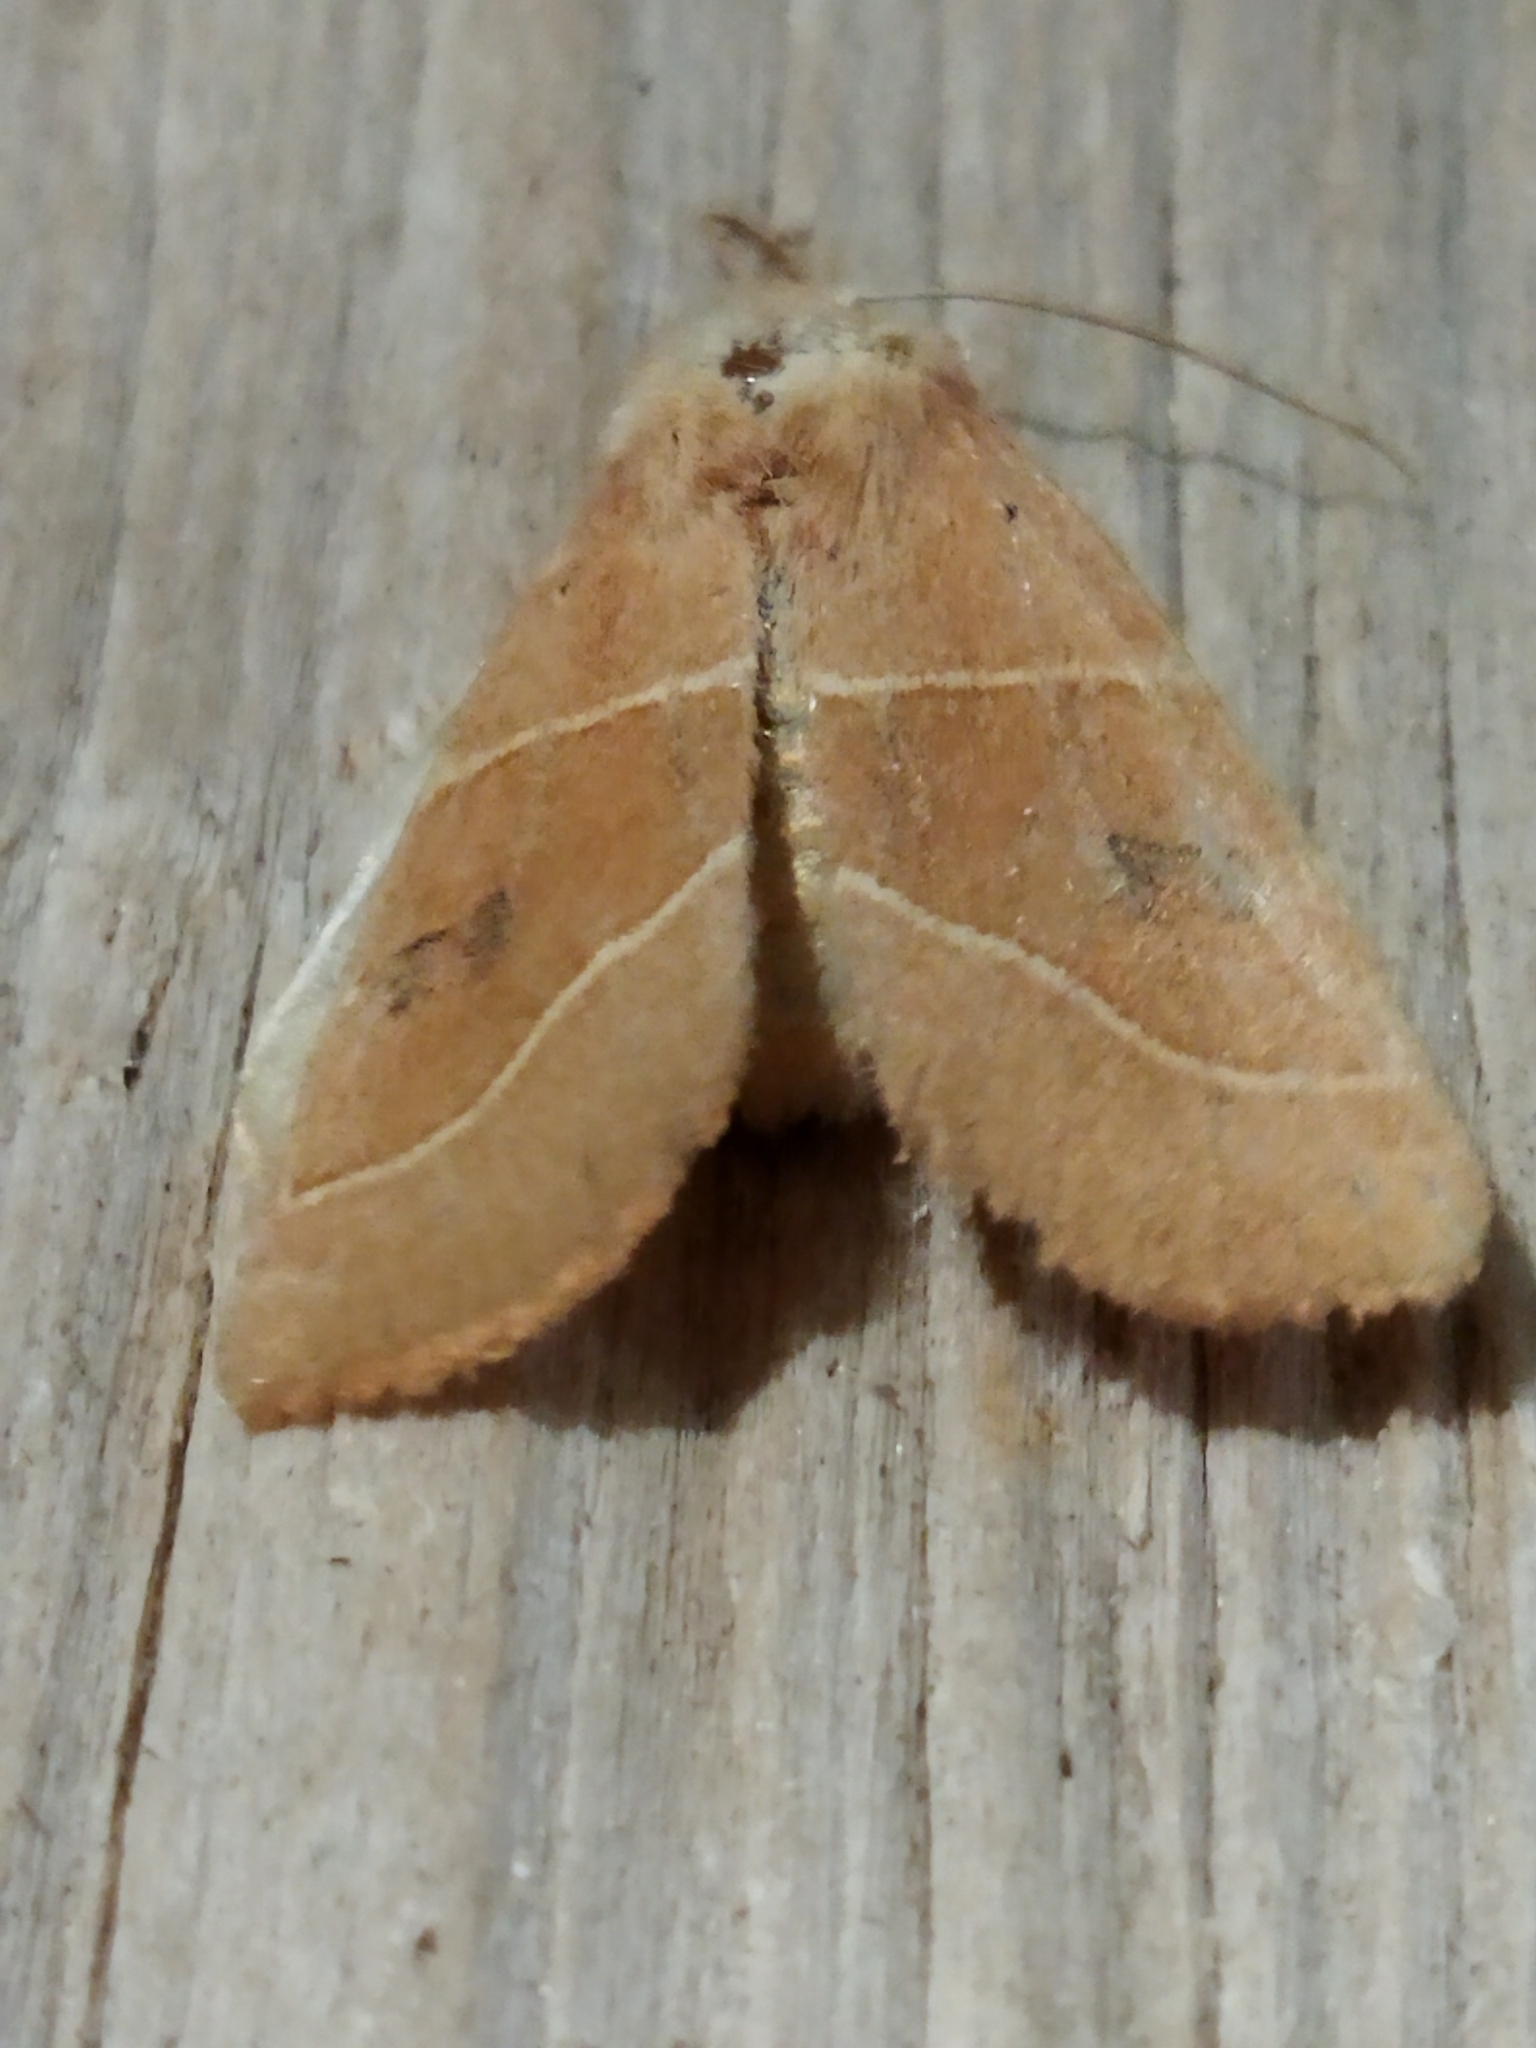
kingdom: Animalia
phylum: Arthropoda
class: Insecta
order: Lepidoptera
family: Noctuidae
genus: Atethmia
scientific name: Atethmia centrago
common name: Centre-barred sallow
